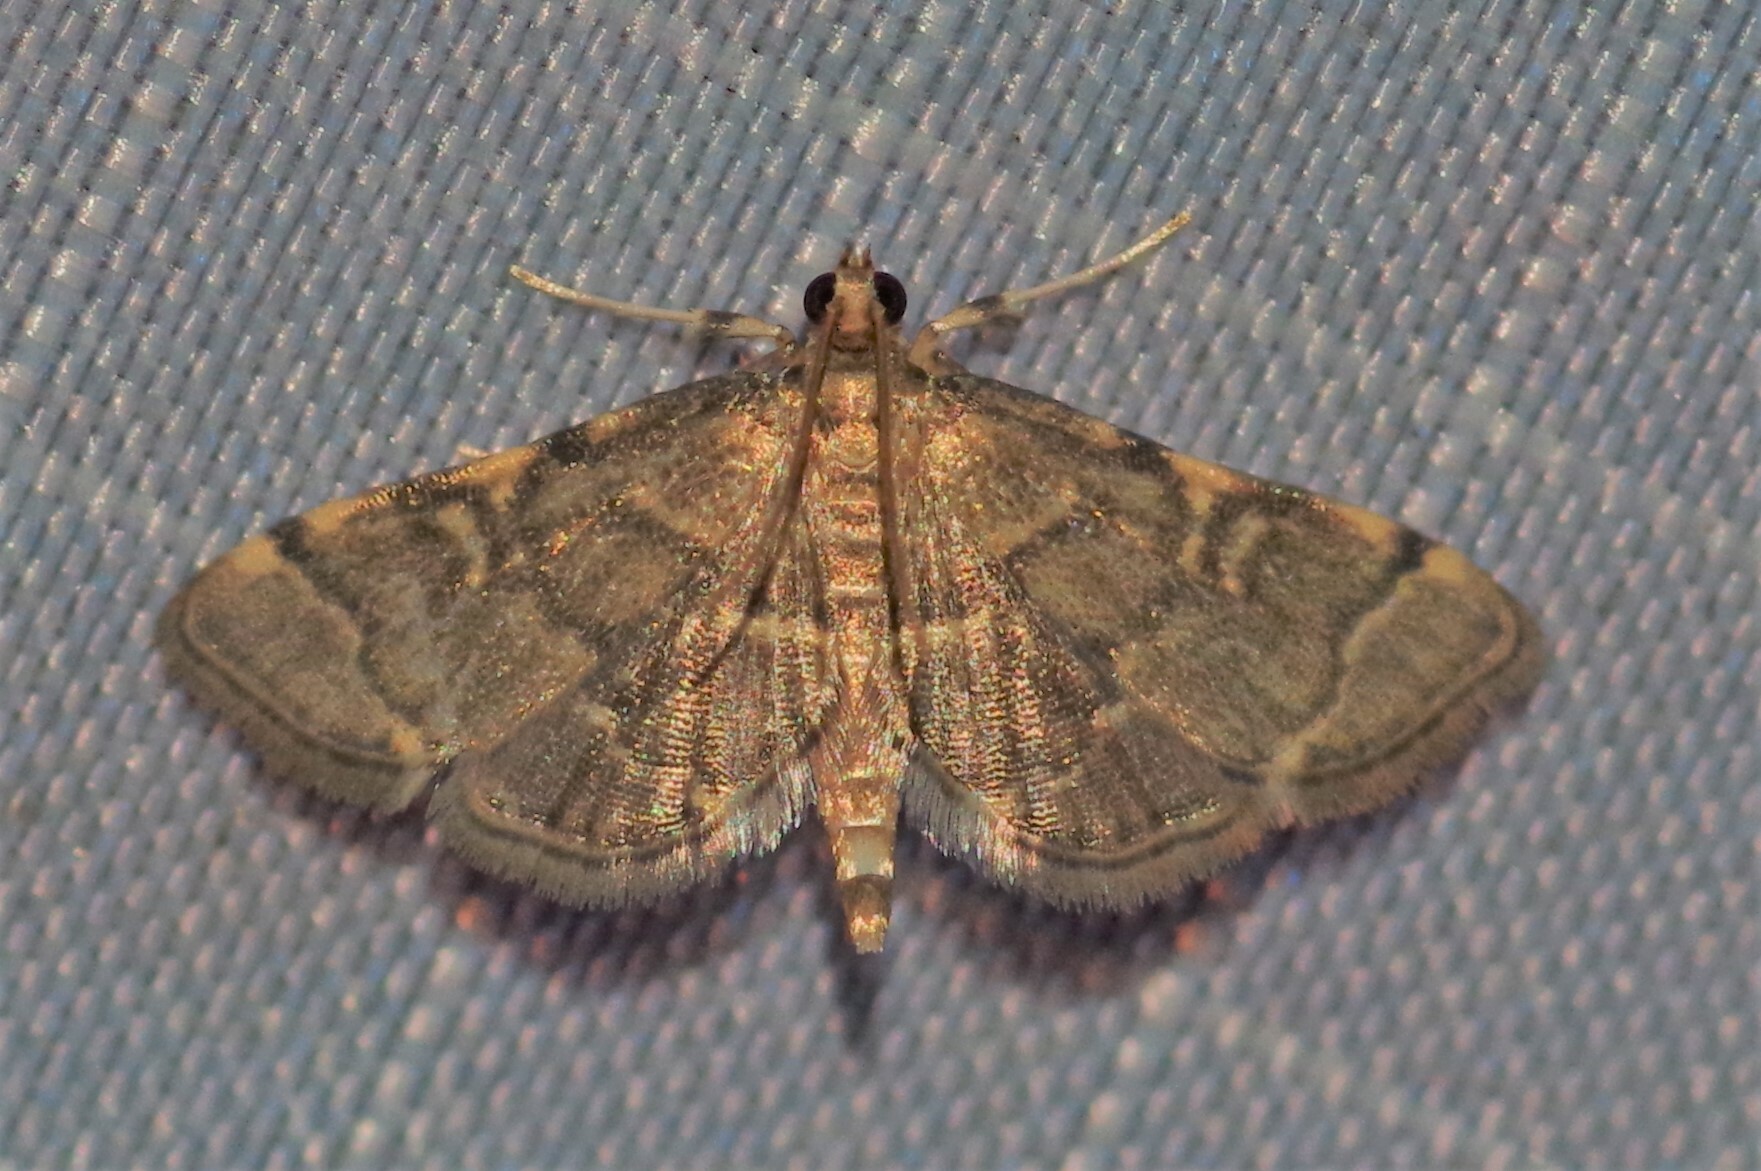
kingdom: Animalia
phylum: Arthropoda
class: Insecta
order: Lepidoptera
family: Crambidae
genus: Anageshna
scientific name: Anageshna primordialis
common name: Yellow-spotted webworm moth
